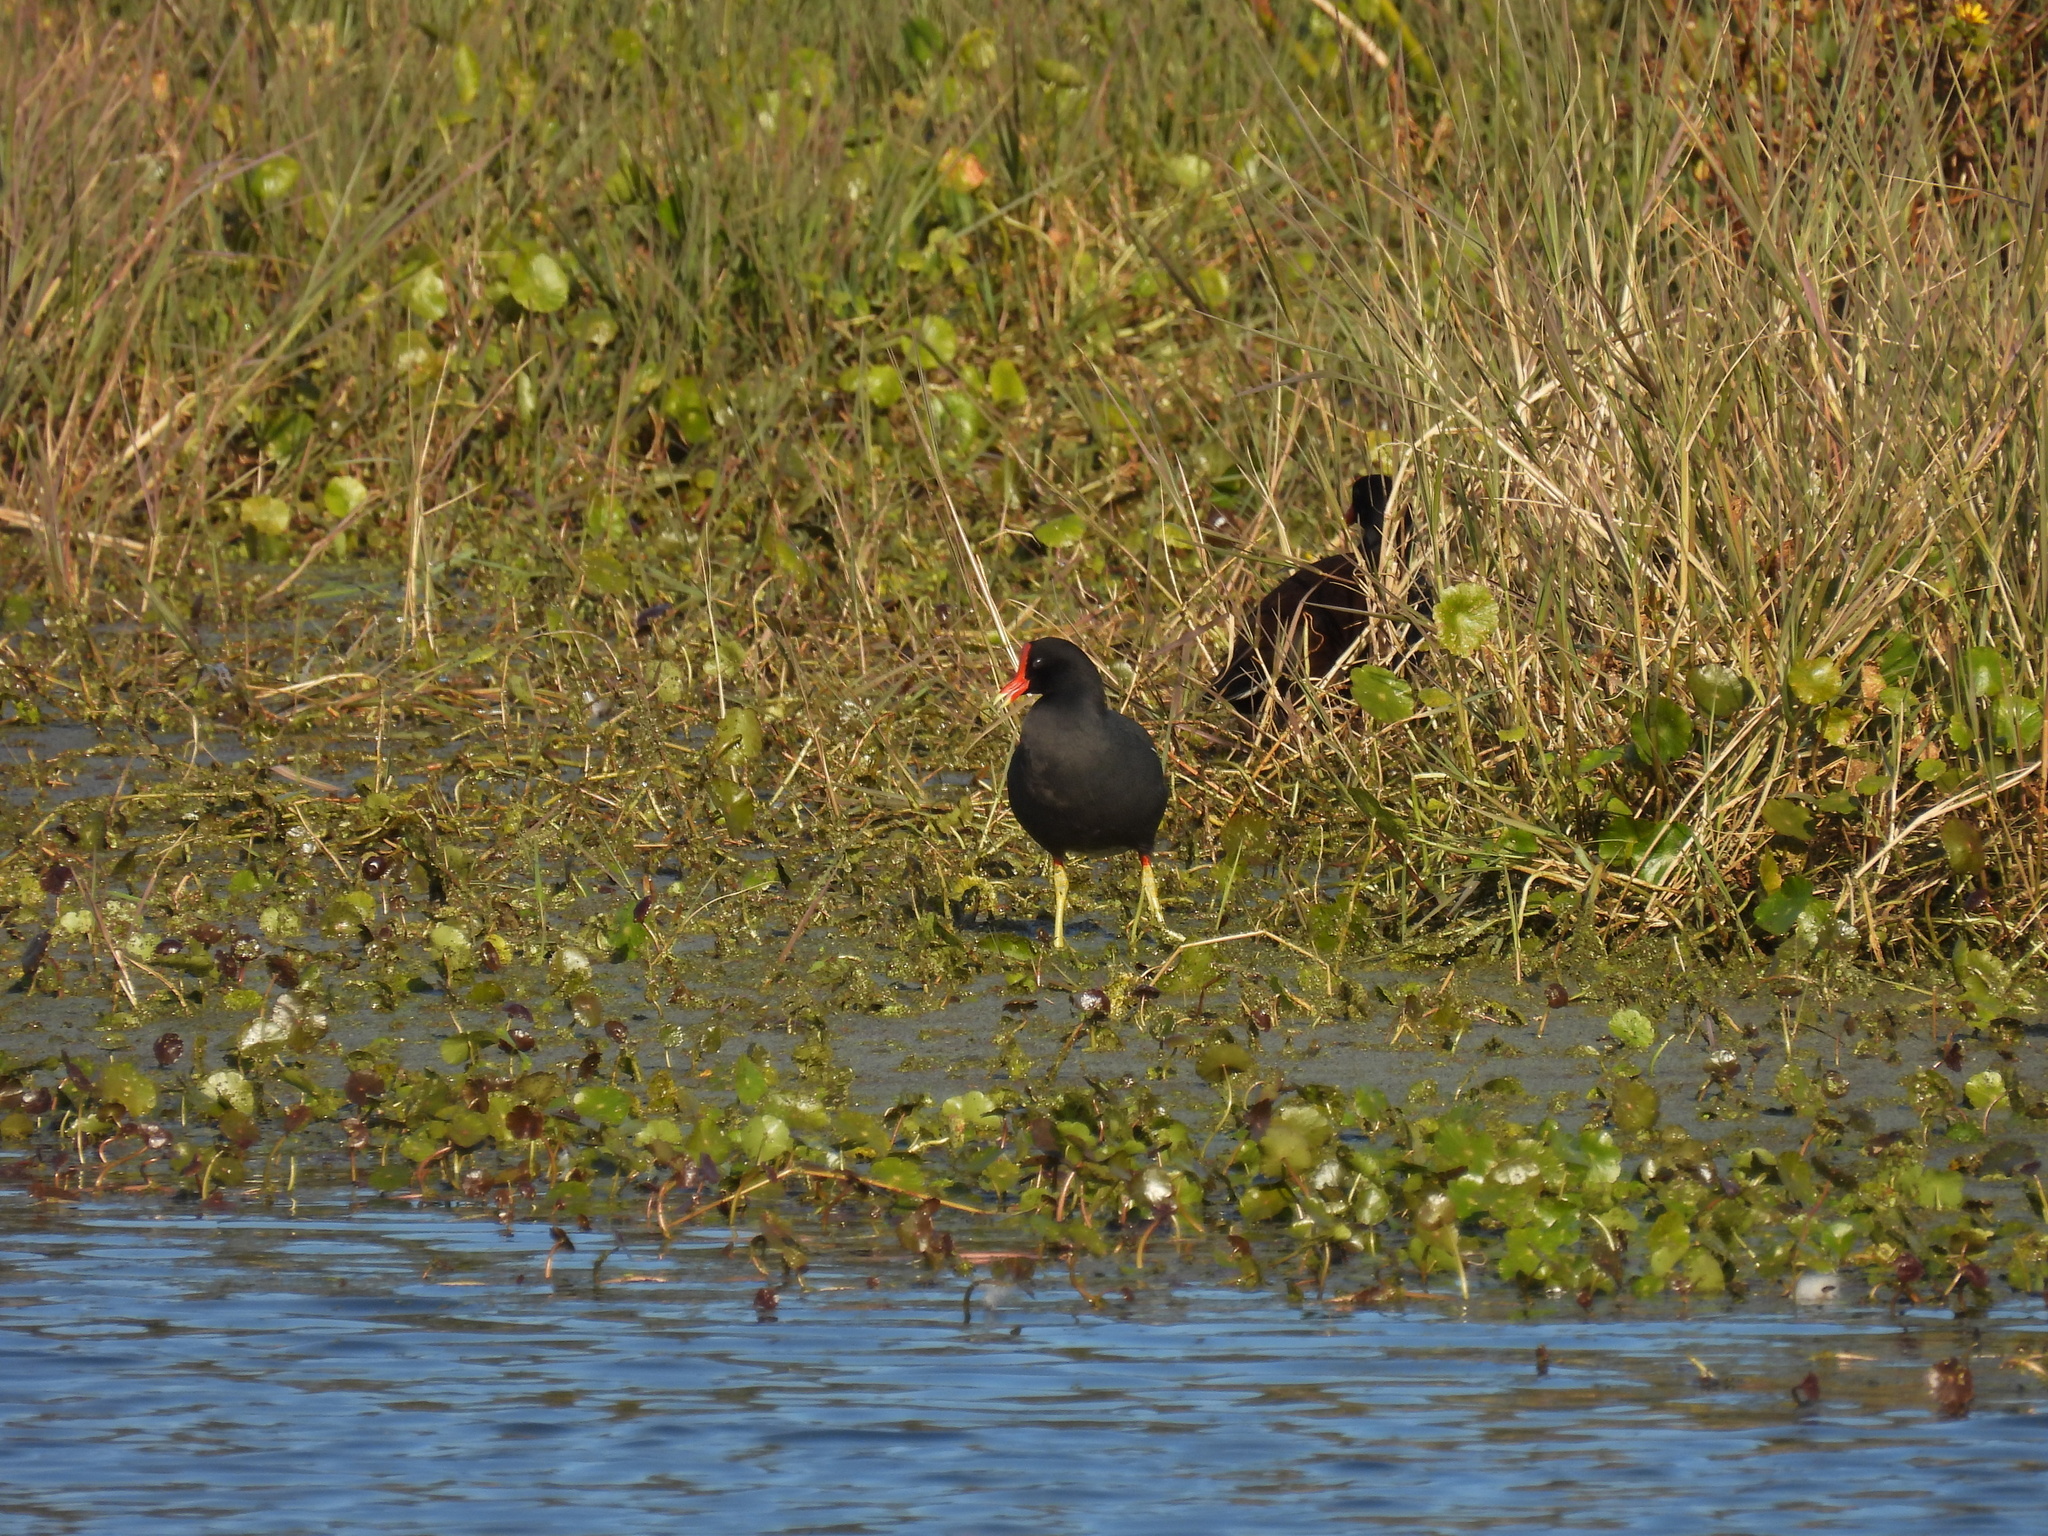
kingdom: Animalia
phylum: Chordata
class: Aves
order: Gruiformes
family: Rallidae
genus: Gallinula
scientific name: Gallinula chloropus
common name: Common moorhen
